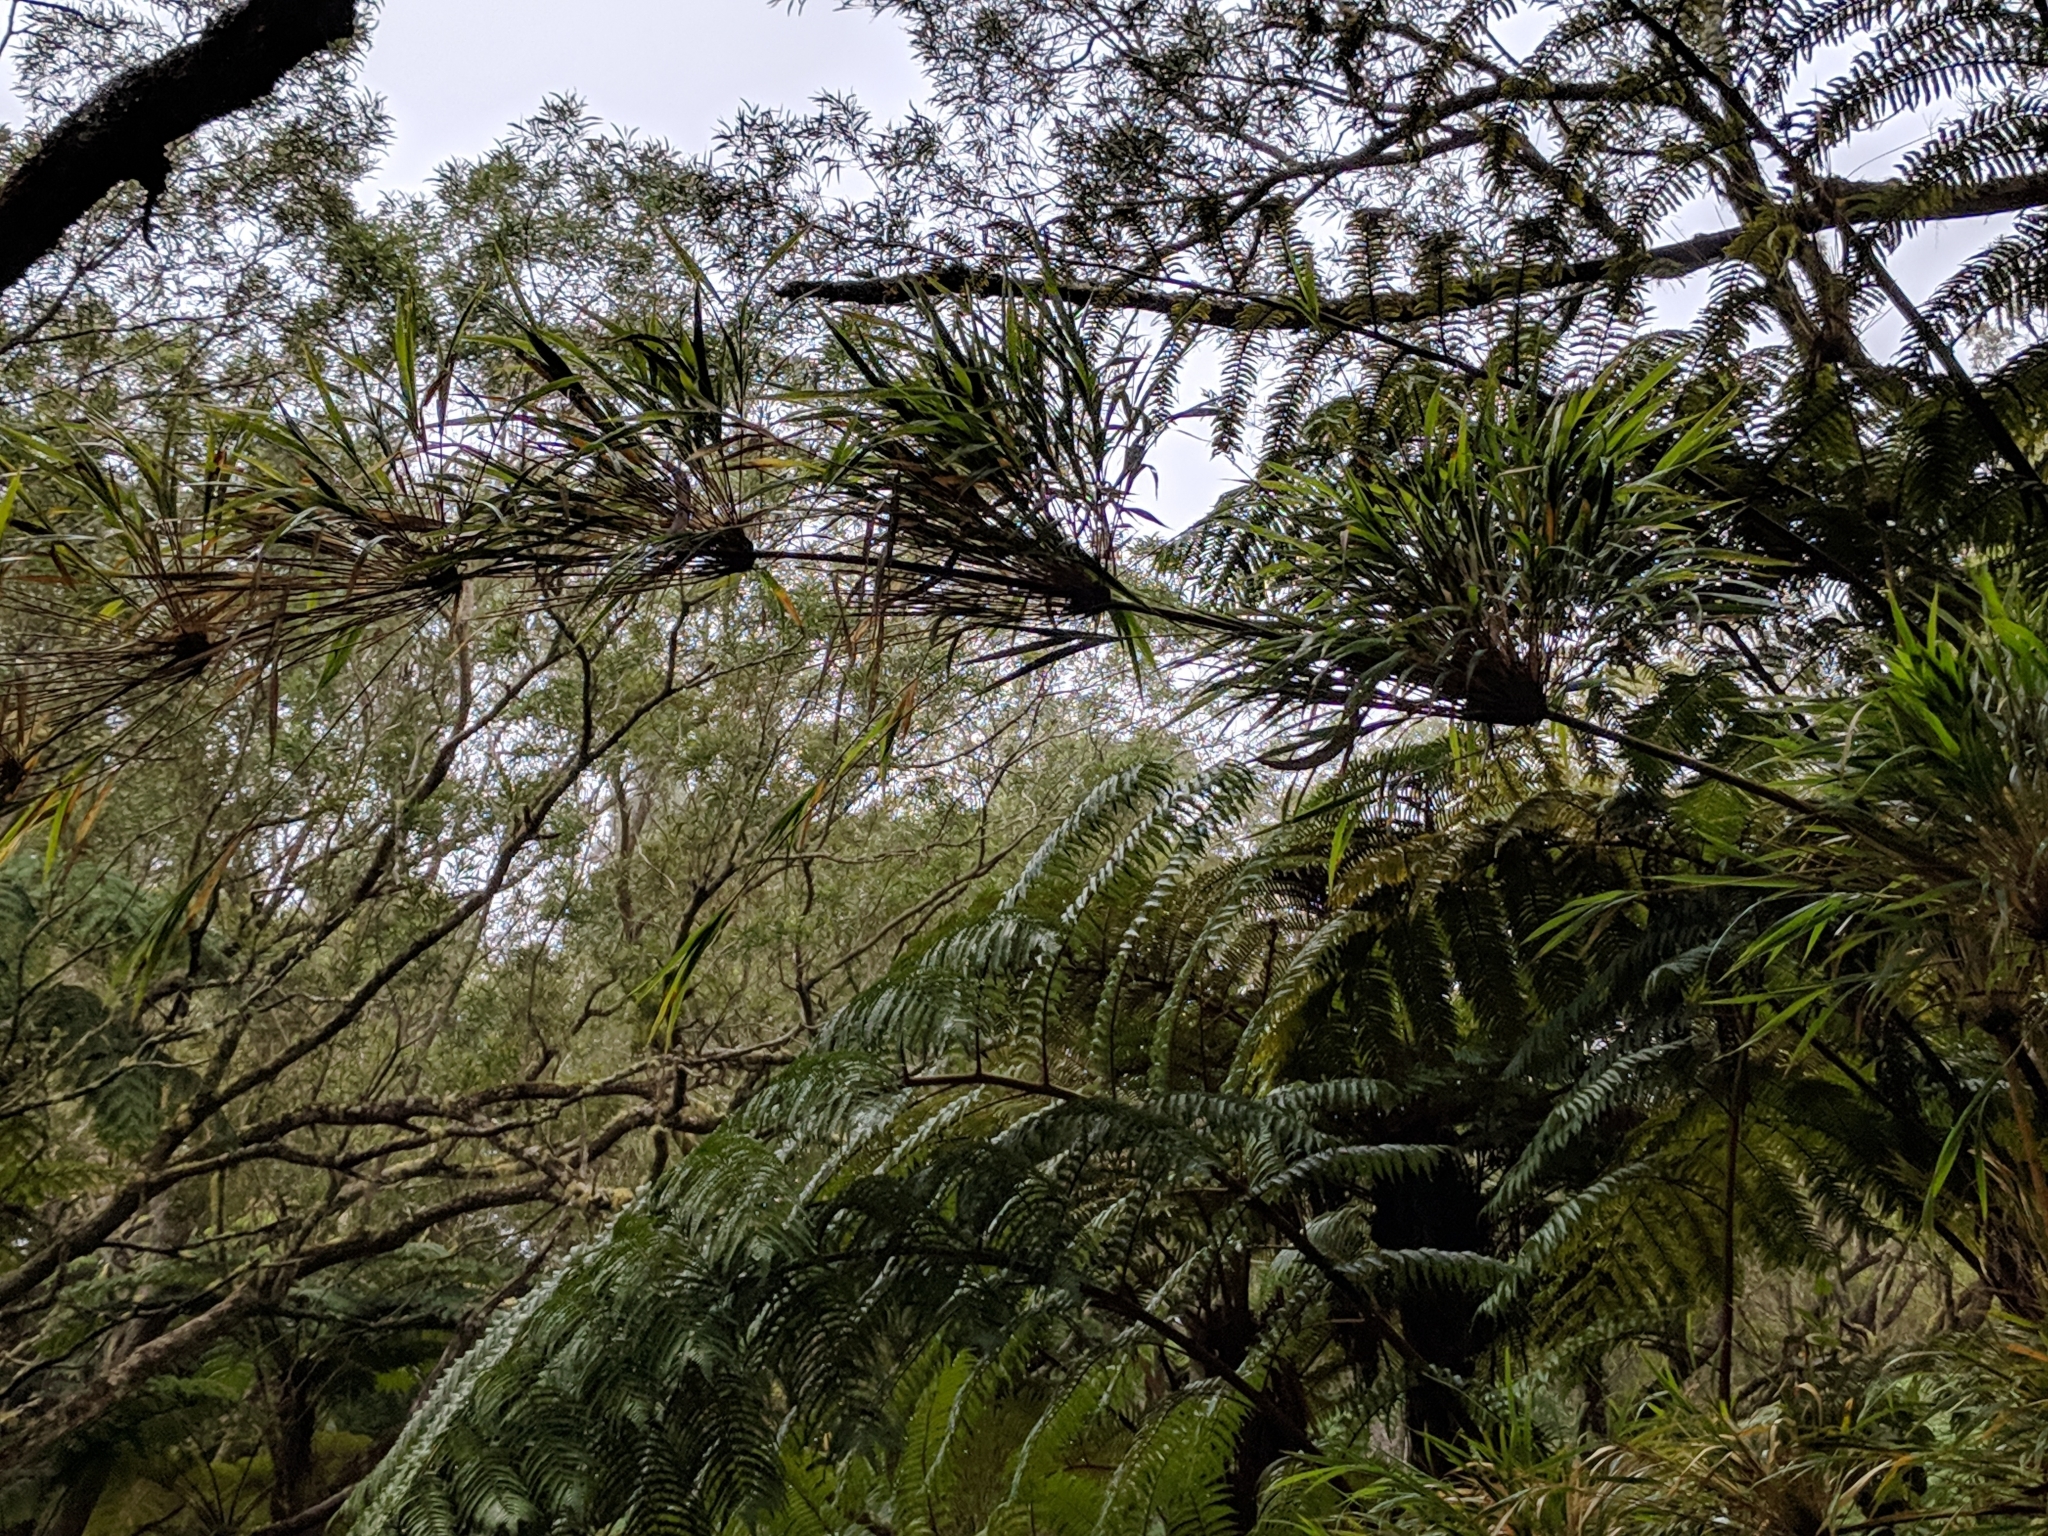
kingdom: Plantae
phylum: Tracheophyta
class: Liliopsida
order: Poales
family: Poaceae
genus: Nastus
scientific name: Nastus borbonicus
